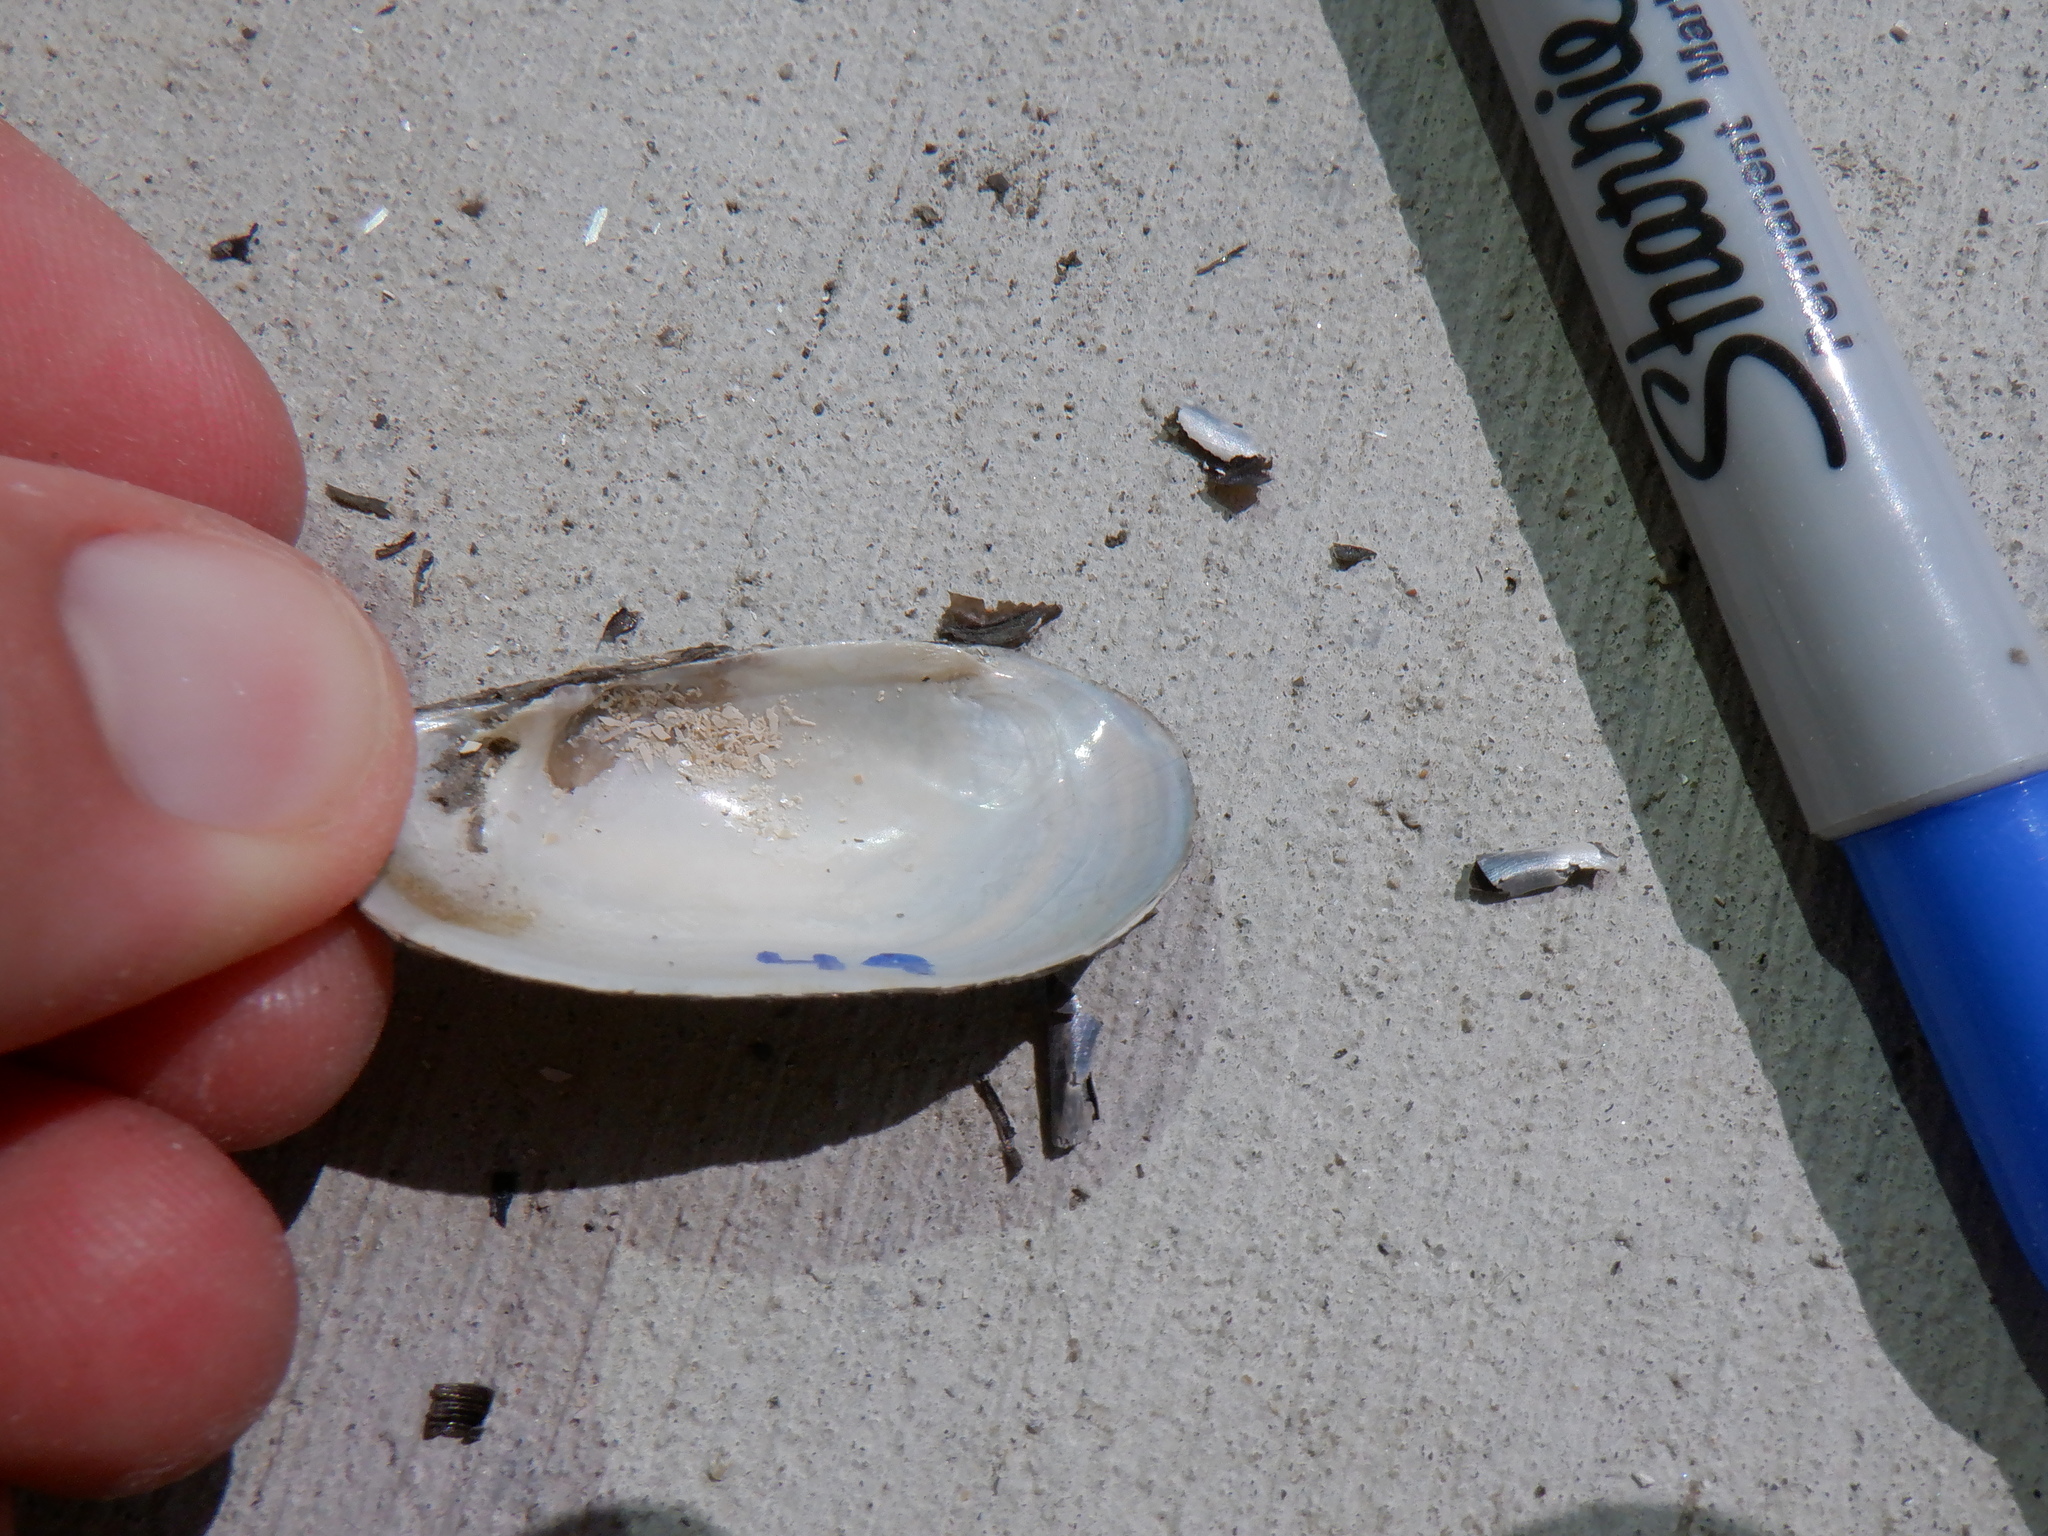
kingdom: Animalia
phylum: Mollusca
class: Bivalvia
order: Unionida
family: Unionidae
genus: Toxolasma
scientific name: Toxolasma parvum
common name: Lilliput
